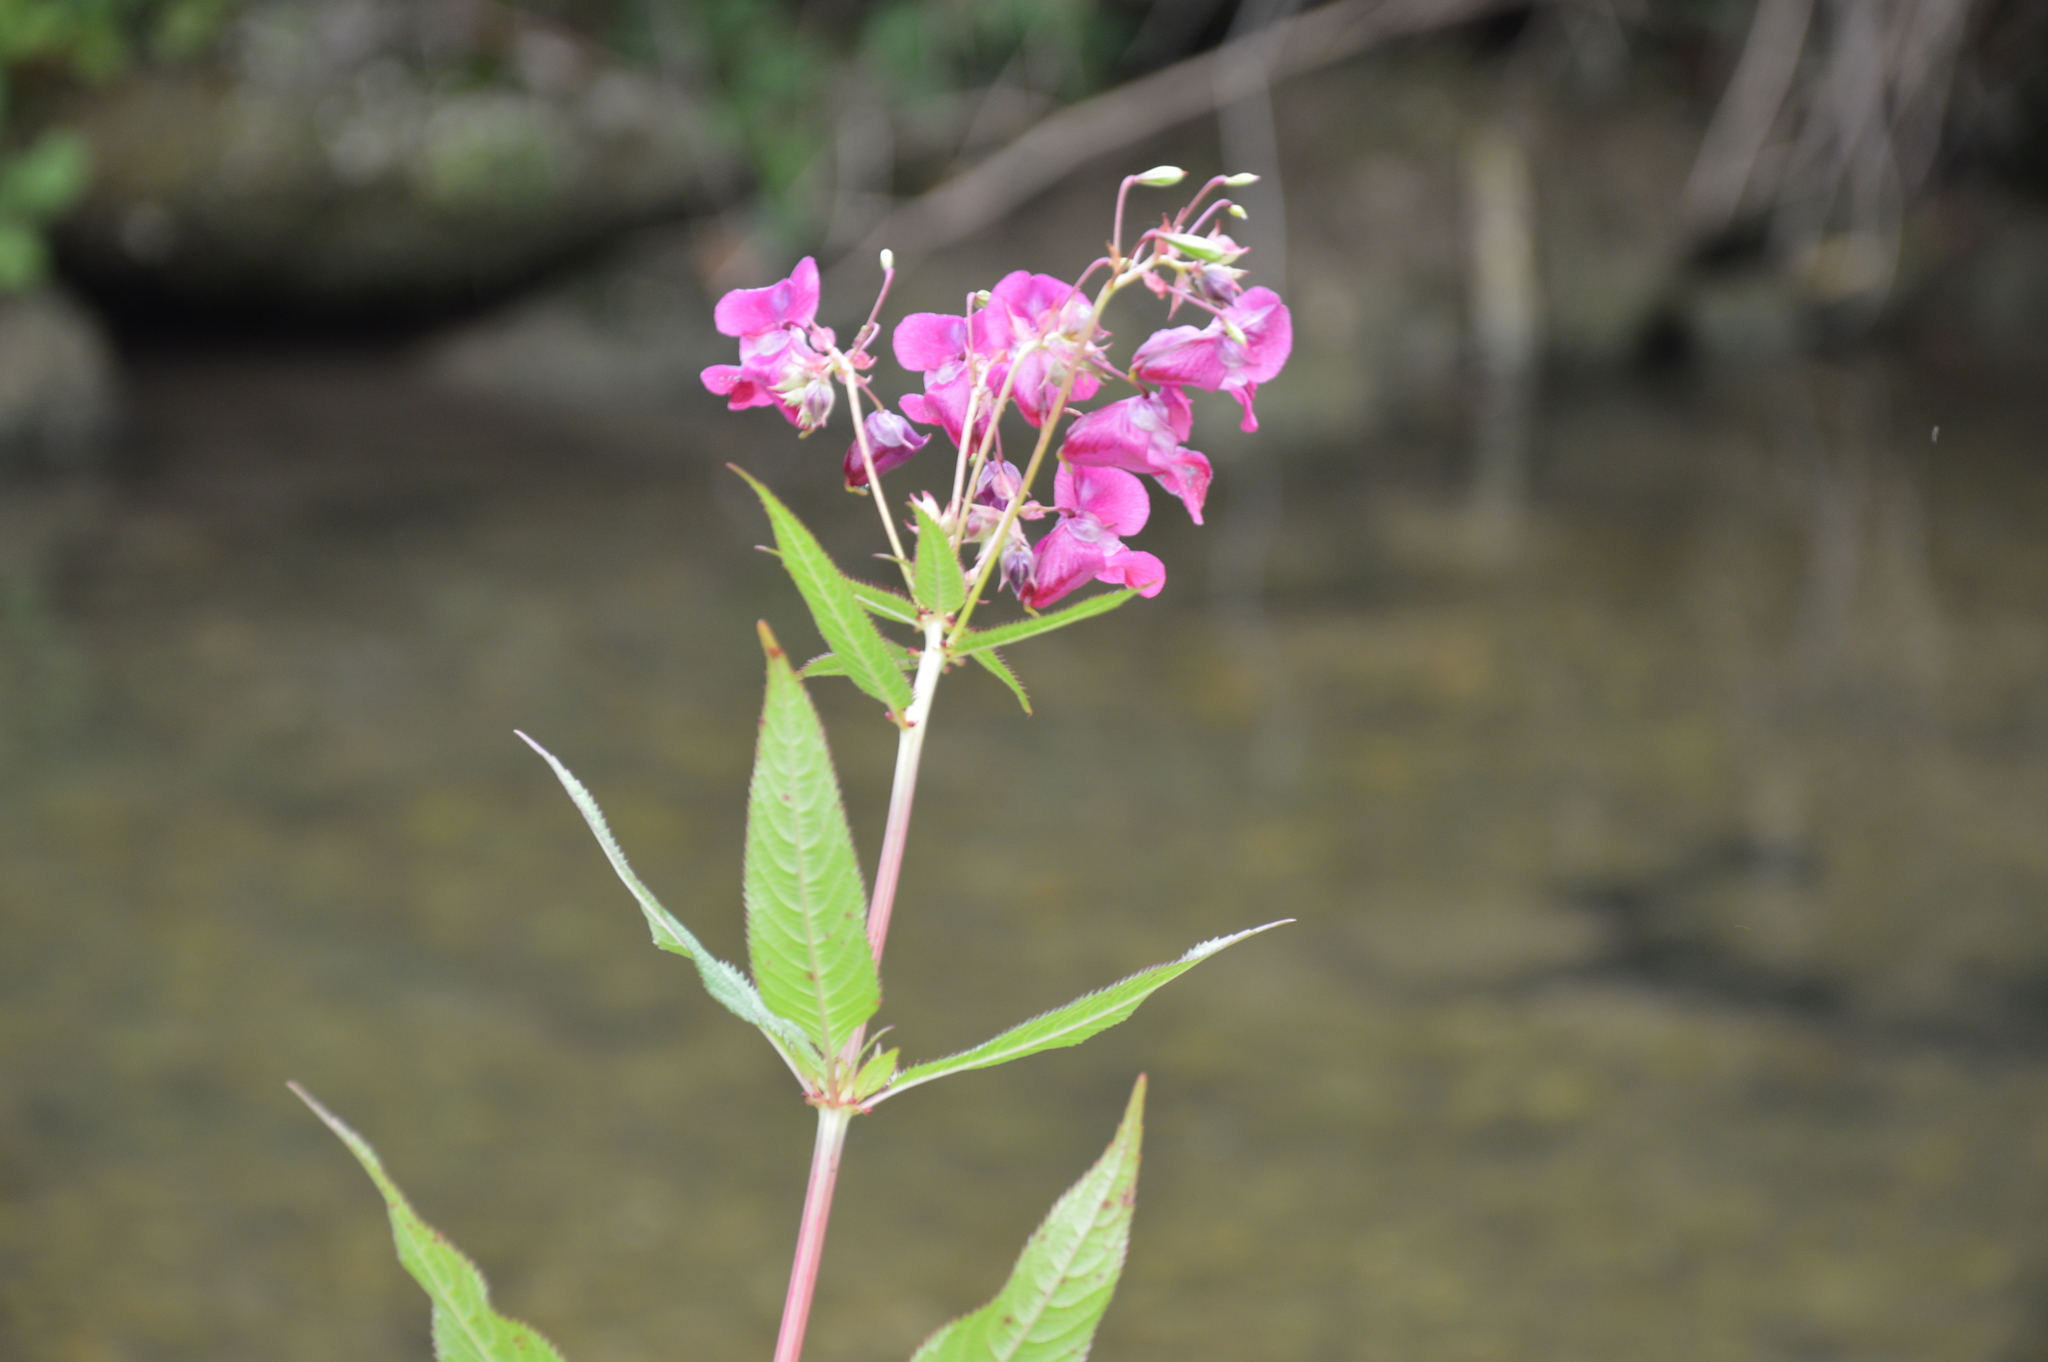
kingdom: Plantae
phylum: Tracheophyta
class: Magnoliopsida
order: Ericales
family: Balsaminaceae
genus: Impatiens
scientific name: Impatiens glandulifera
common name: Himalayan balsam
